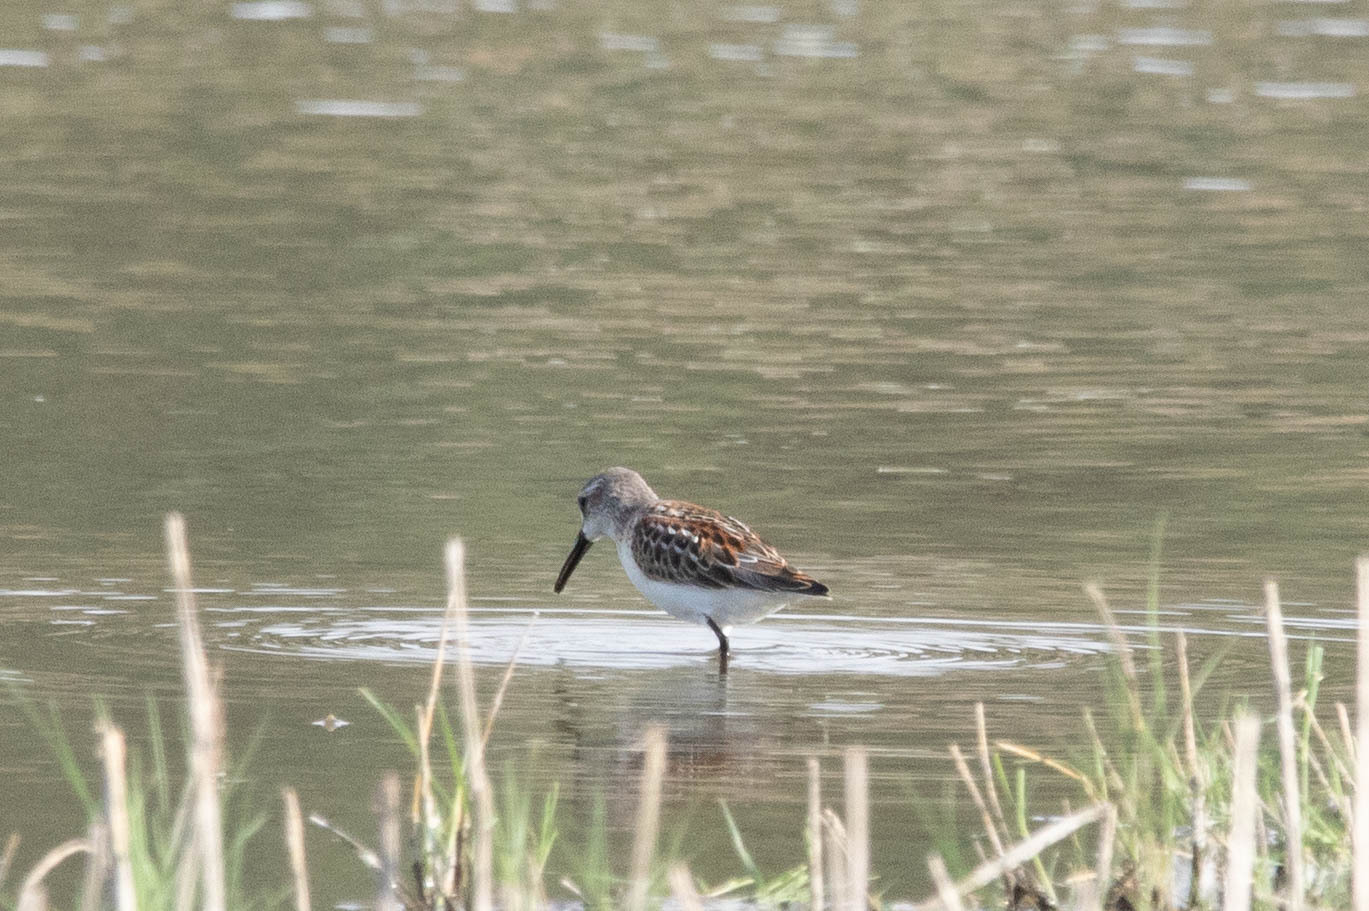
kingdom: Animalia
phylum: Chordata
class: Aves
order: Charadriiformes
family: Scolopacidae
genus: Calidris
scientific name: Calidris mauri
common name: Western sandpiper
